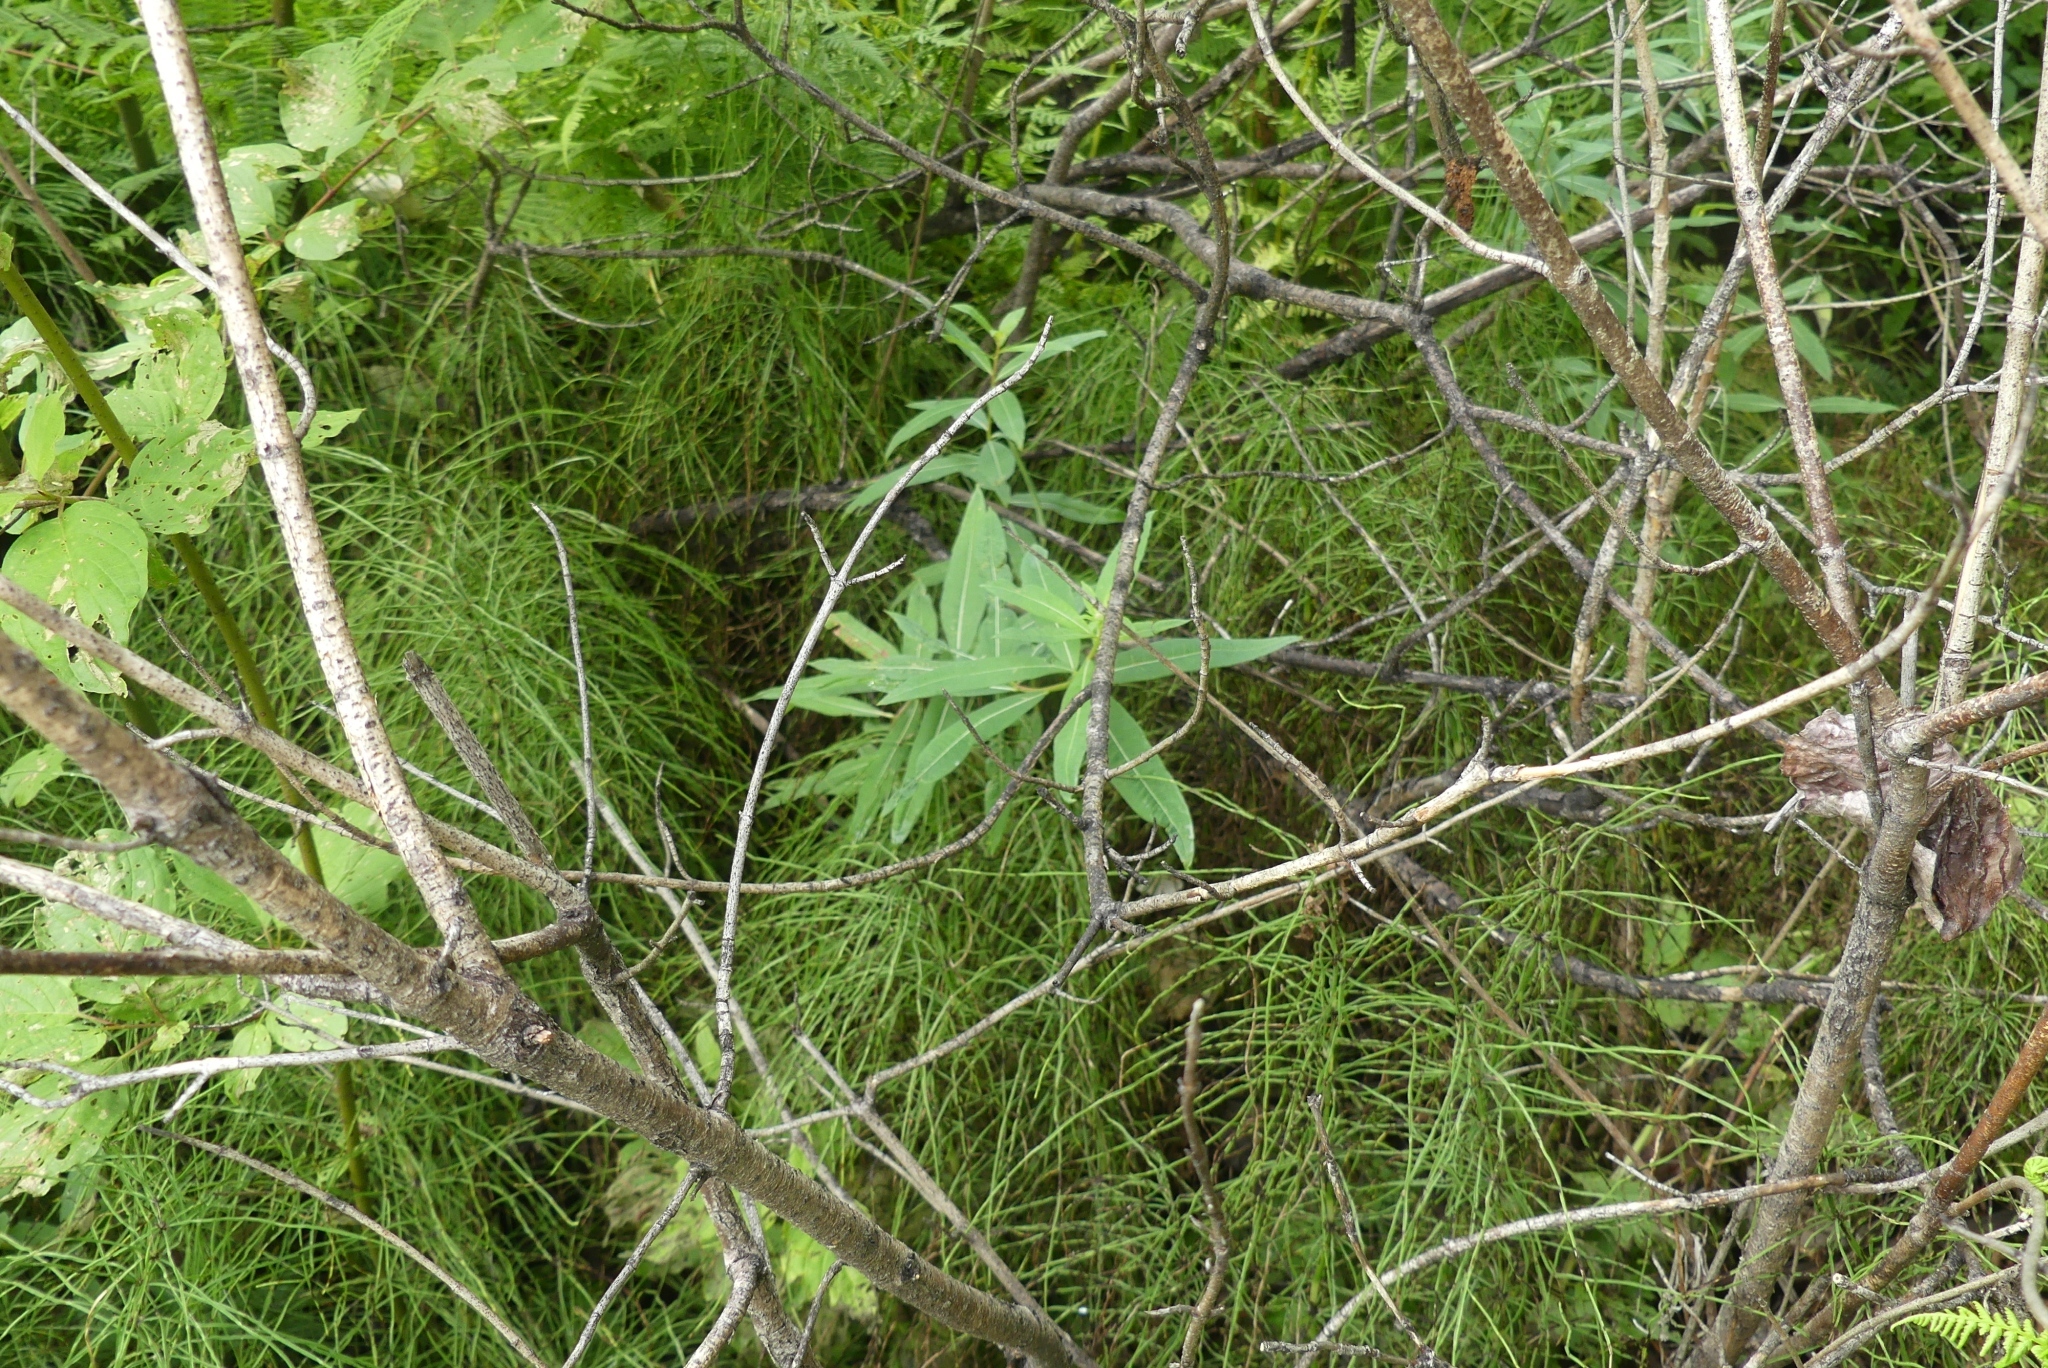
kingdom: Plantae
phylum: Tracheophyta
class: Magnoliopsida
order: Myrtales
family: Onagraceae
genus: Chamaenerion
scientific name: Chamaenerion angustifolium
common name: Fireweed
